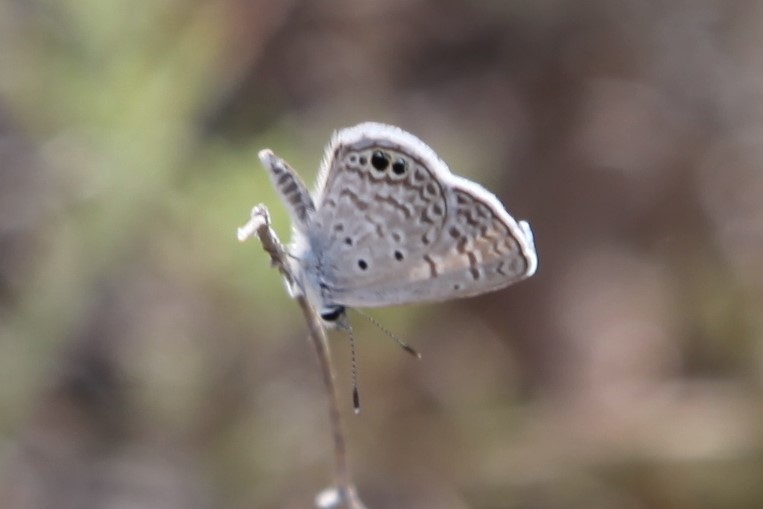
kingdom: Animalia
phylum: Arthropoda
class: Insecta
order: Lepidoptera
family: Lycaenidae
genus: Hemiargus
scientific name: Hemiargus ceraunus
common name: Ceraunus blue
